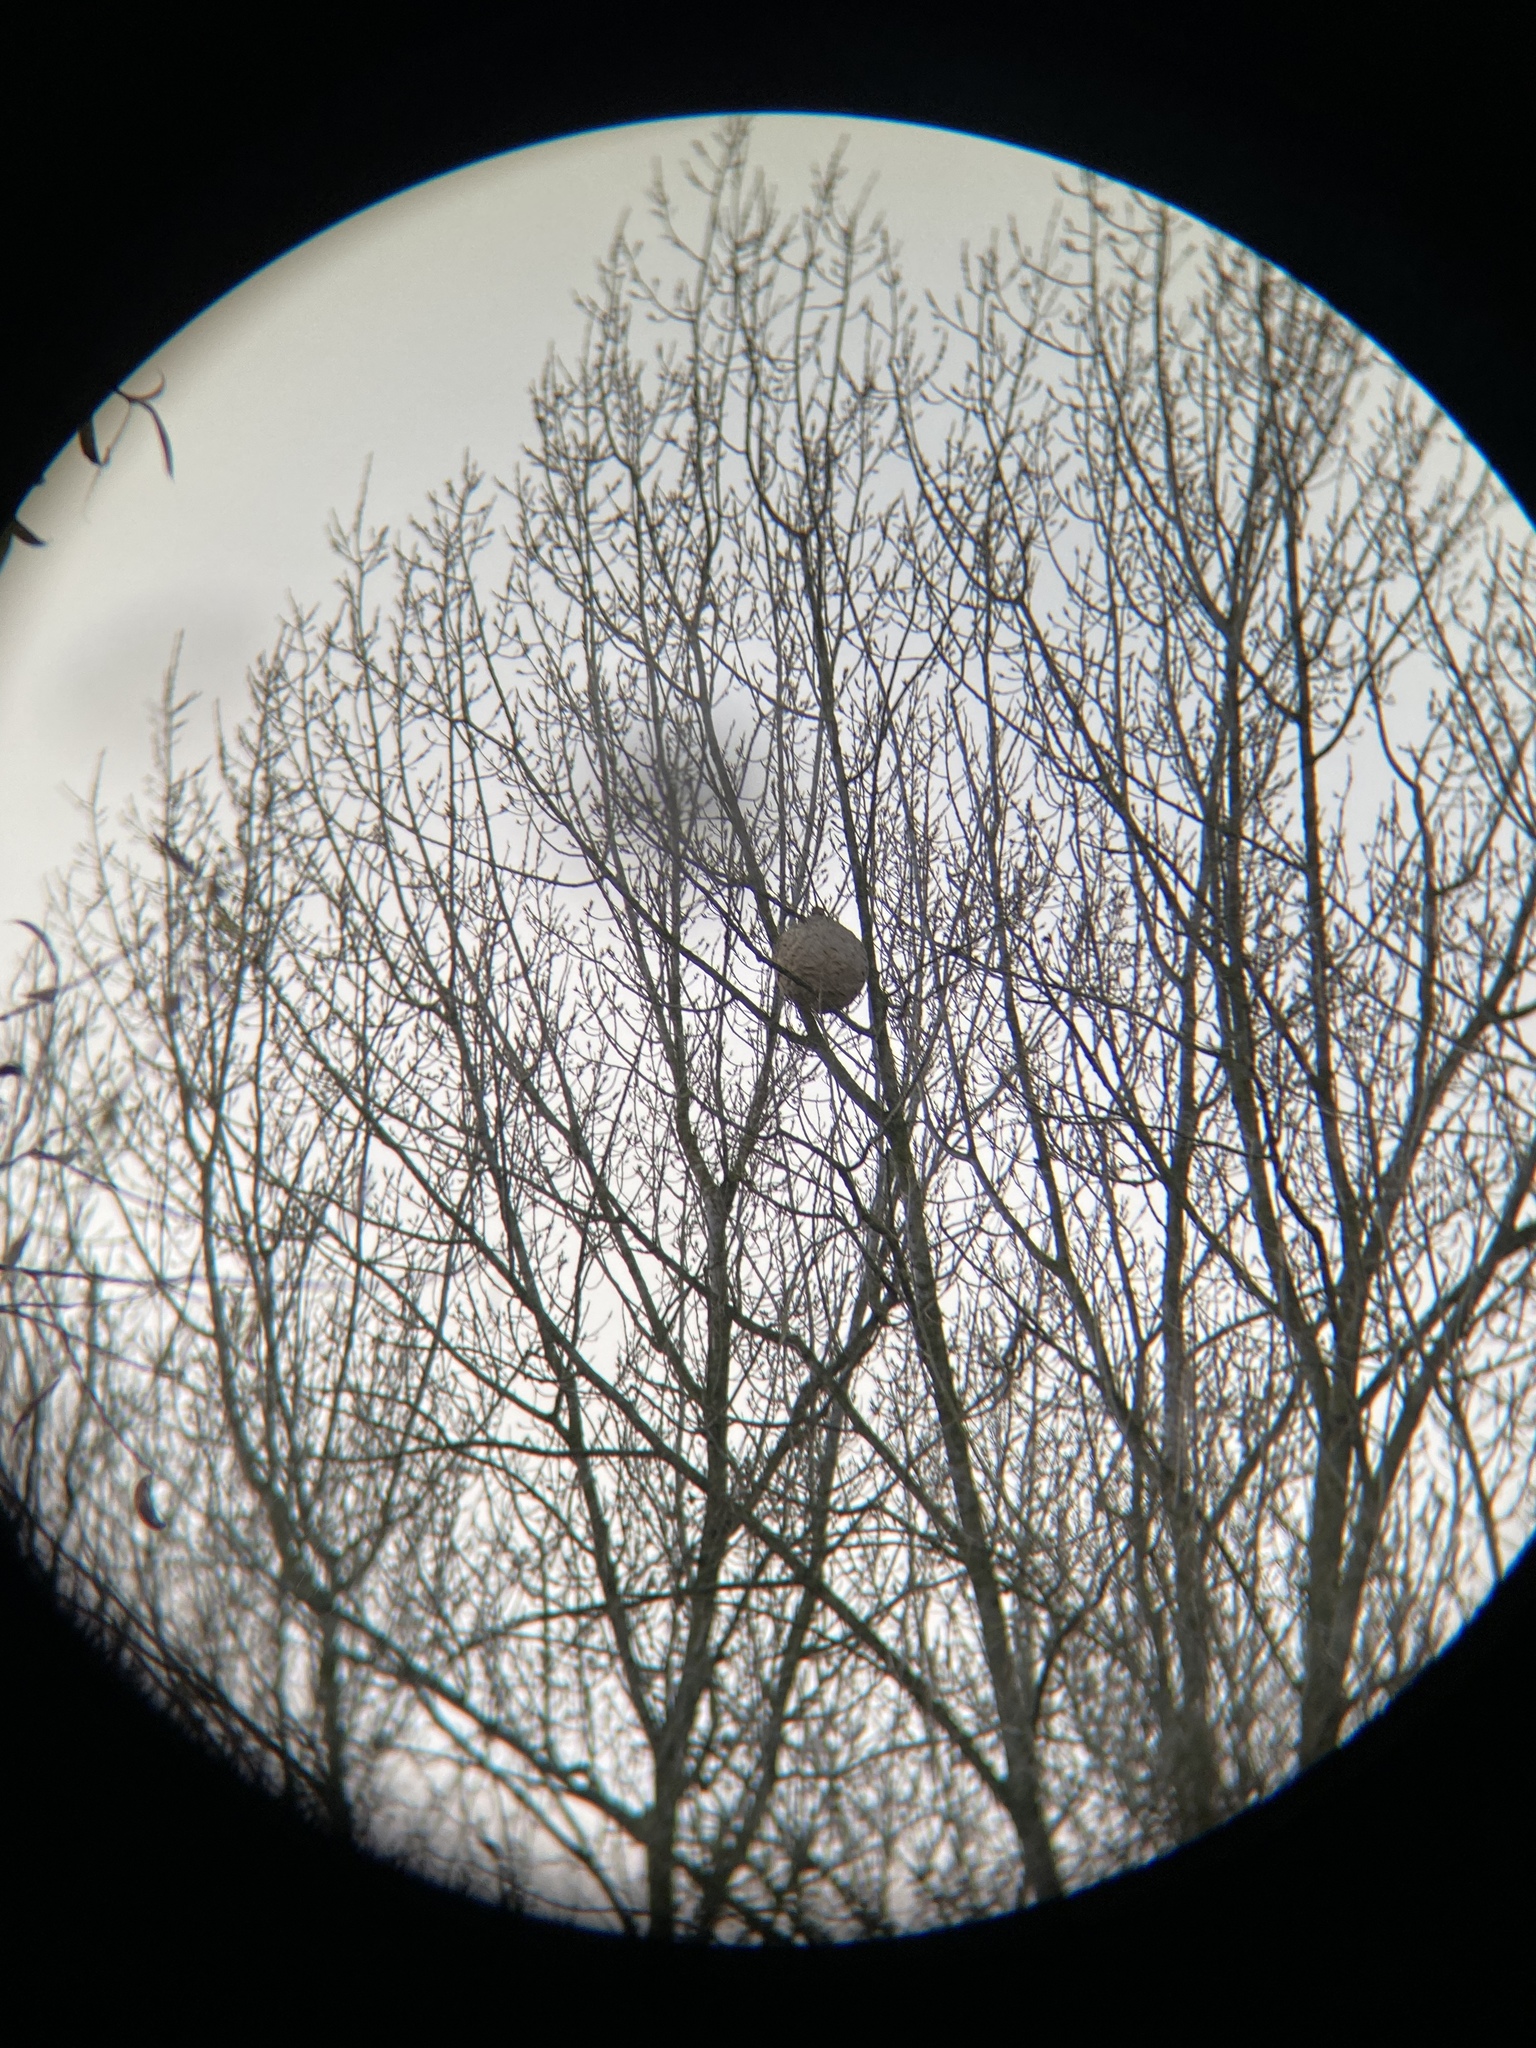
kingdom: Animalia
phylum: Arthropoda
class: Insecta
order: Hymenoptera
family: Vespidae
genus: Vespa
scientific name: Vespa velutina
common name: Asian hornet
